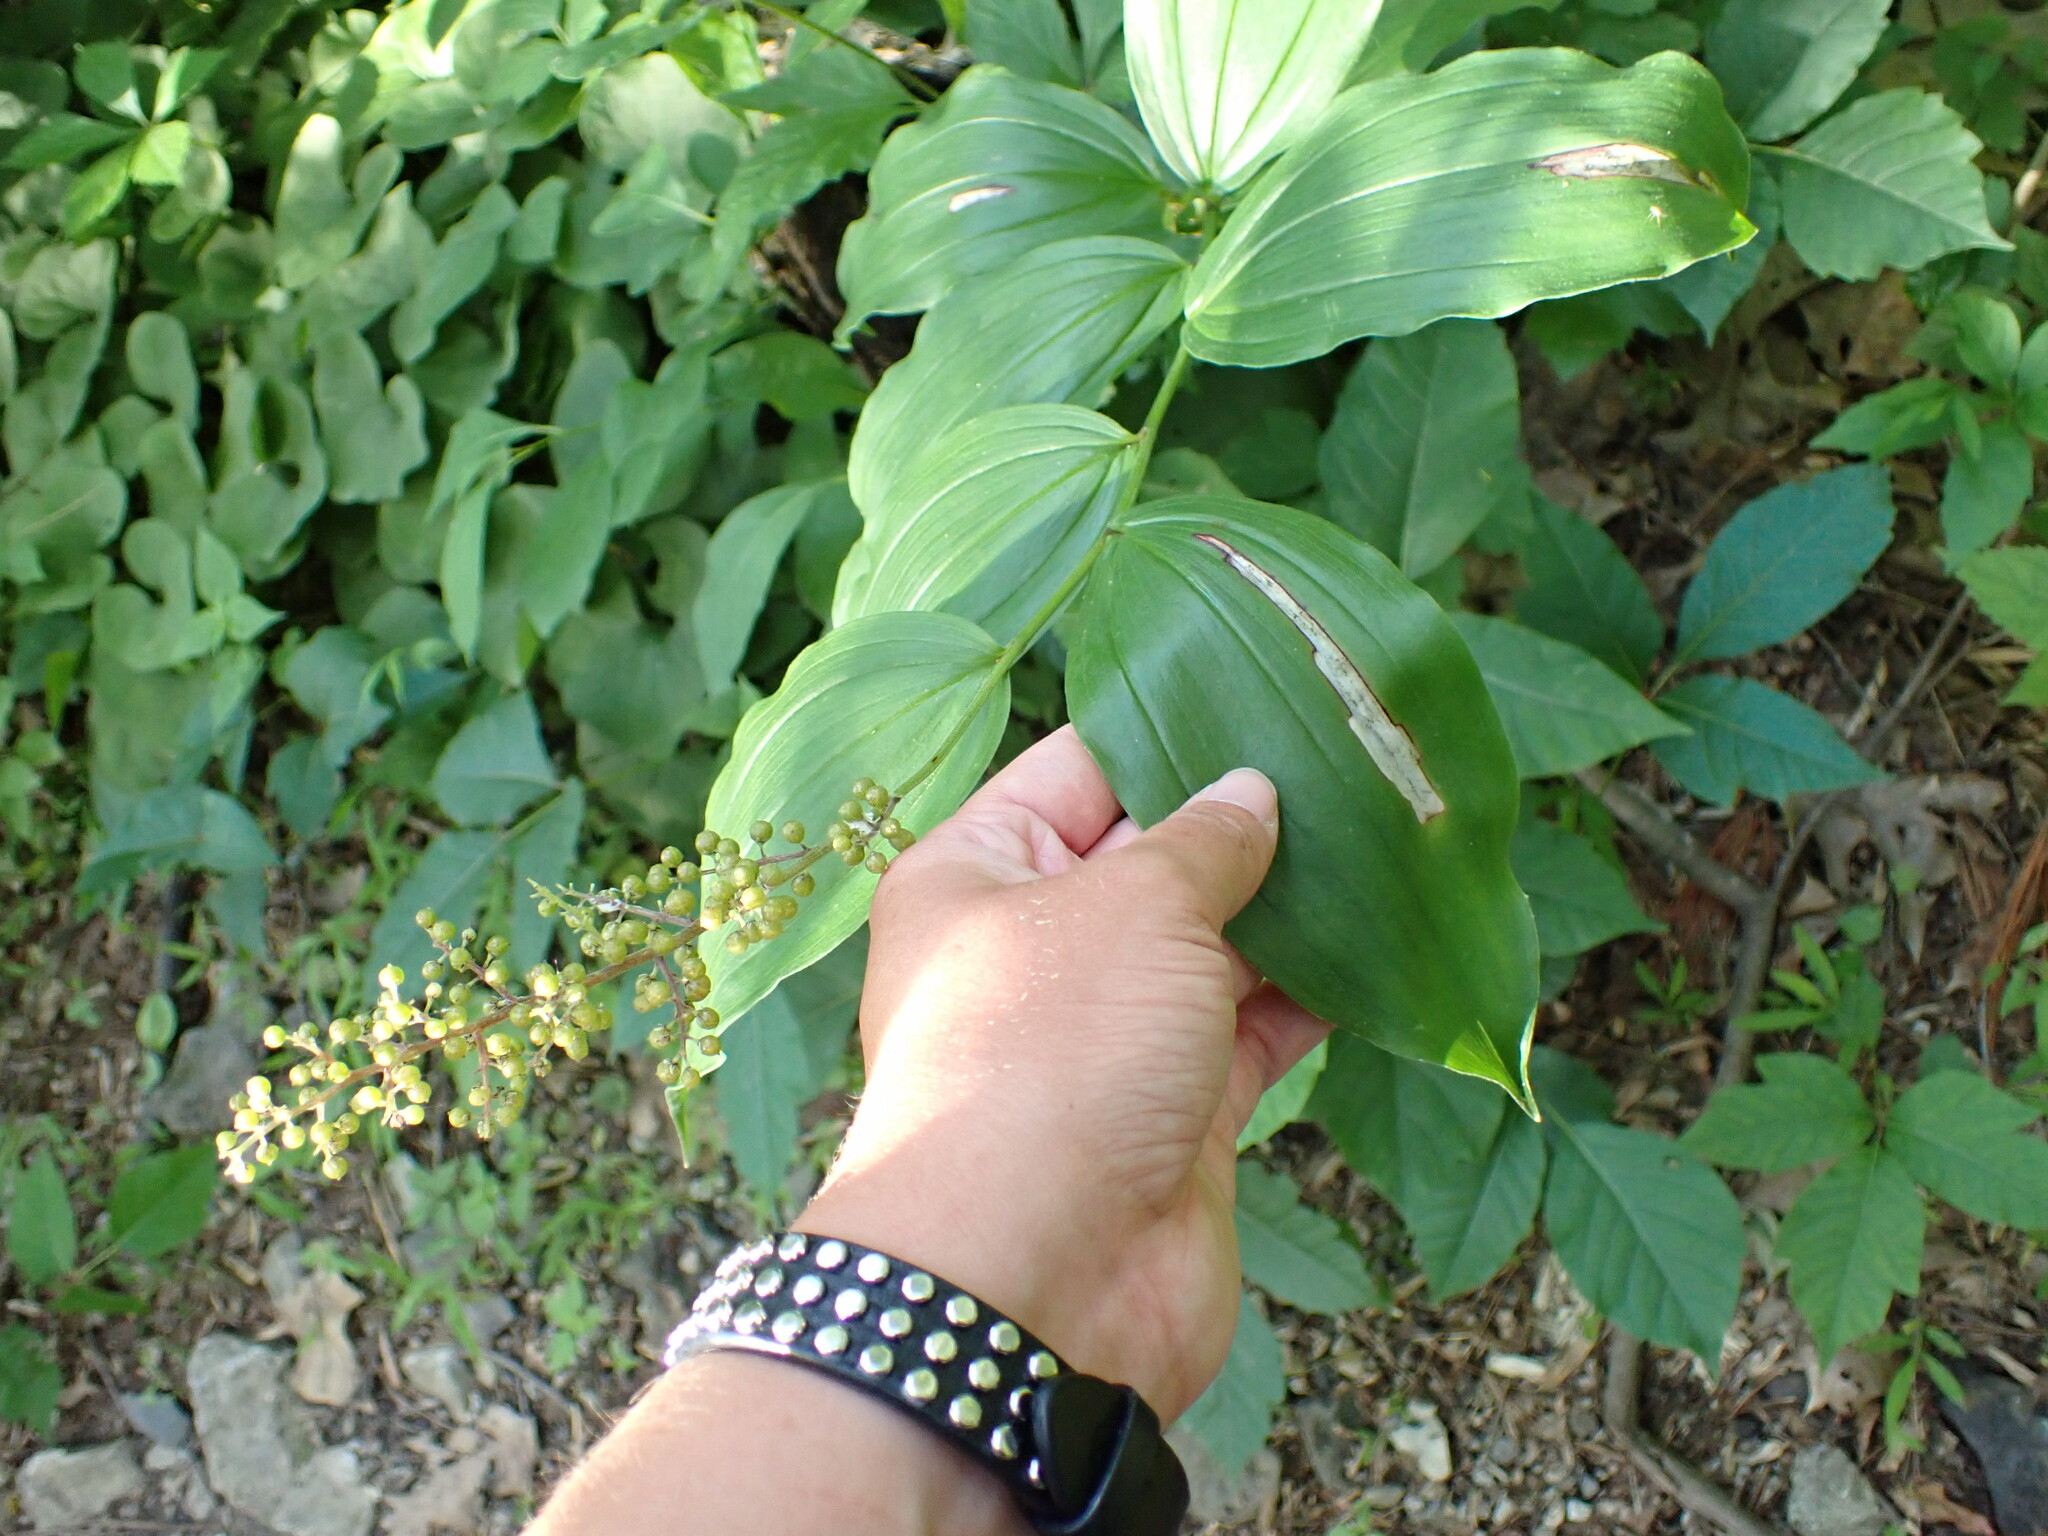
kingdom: Plantae
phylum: Tracheophyta
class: Liliopsida
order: Asparagales
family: Asparagaceae
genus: Maianthemum
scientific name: Maianthemum racemosum
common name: False spikenard
